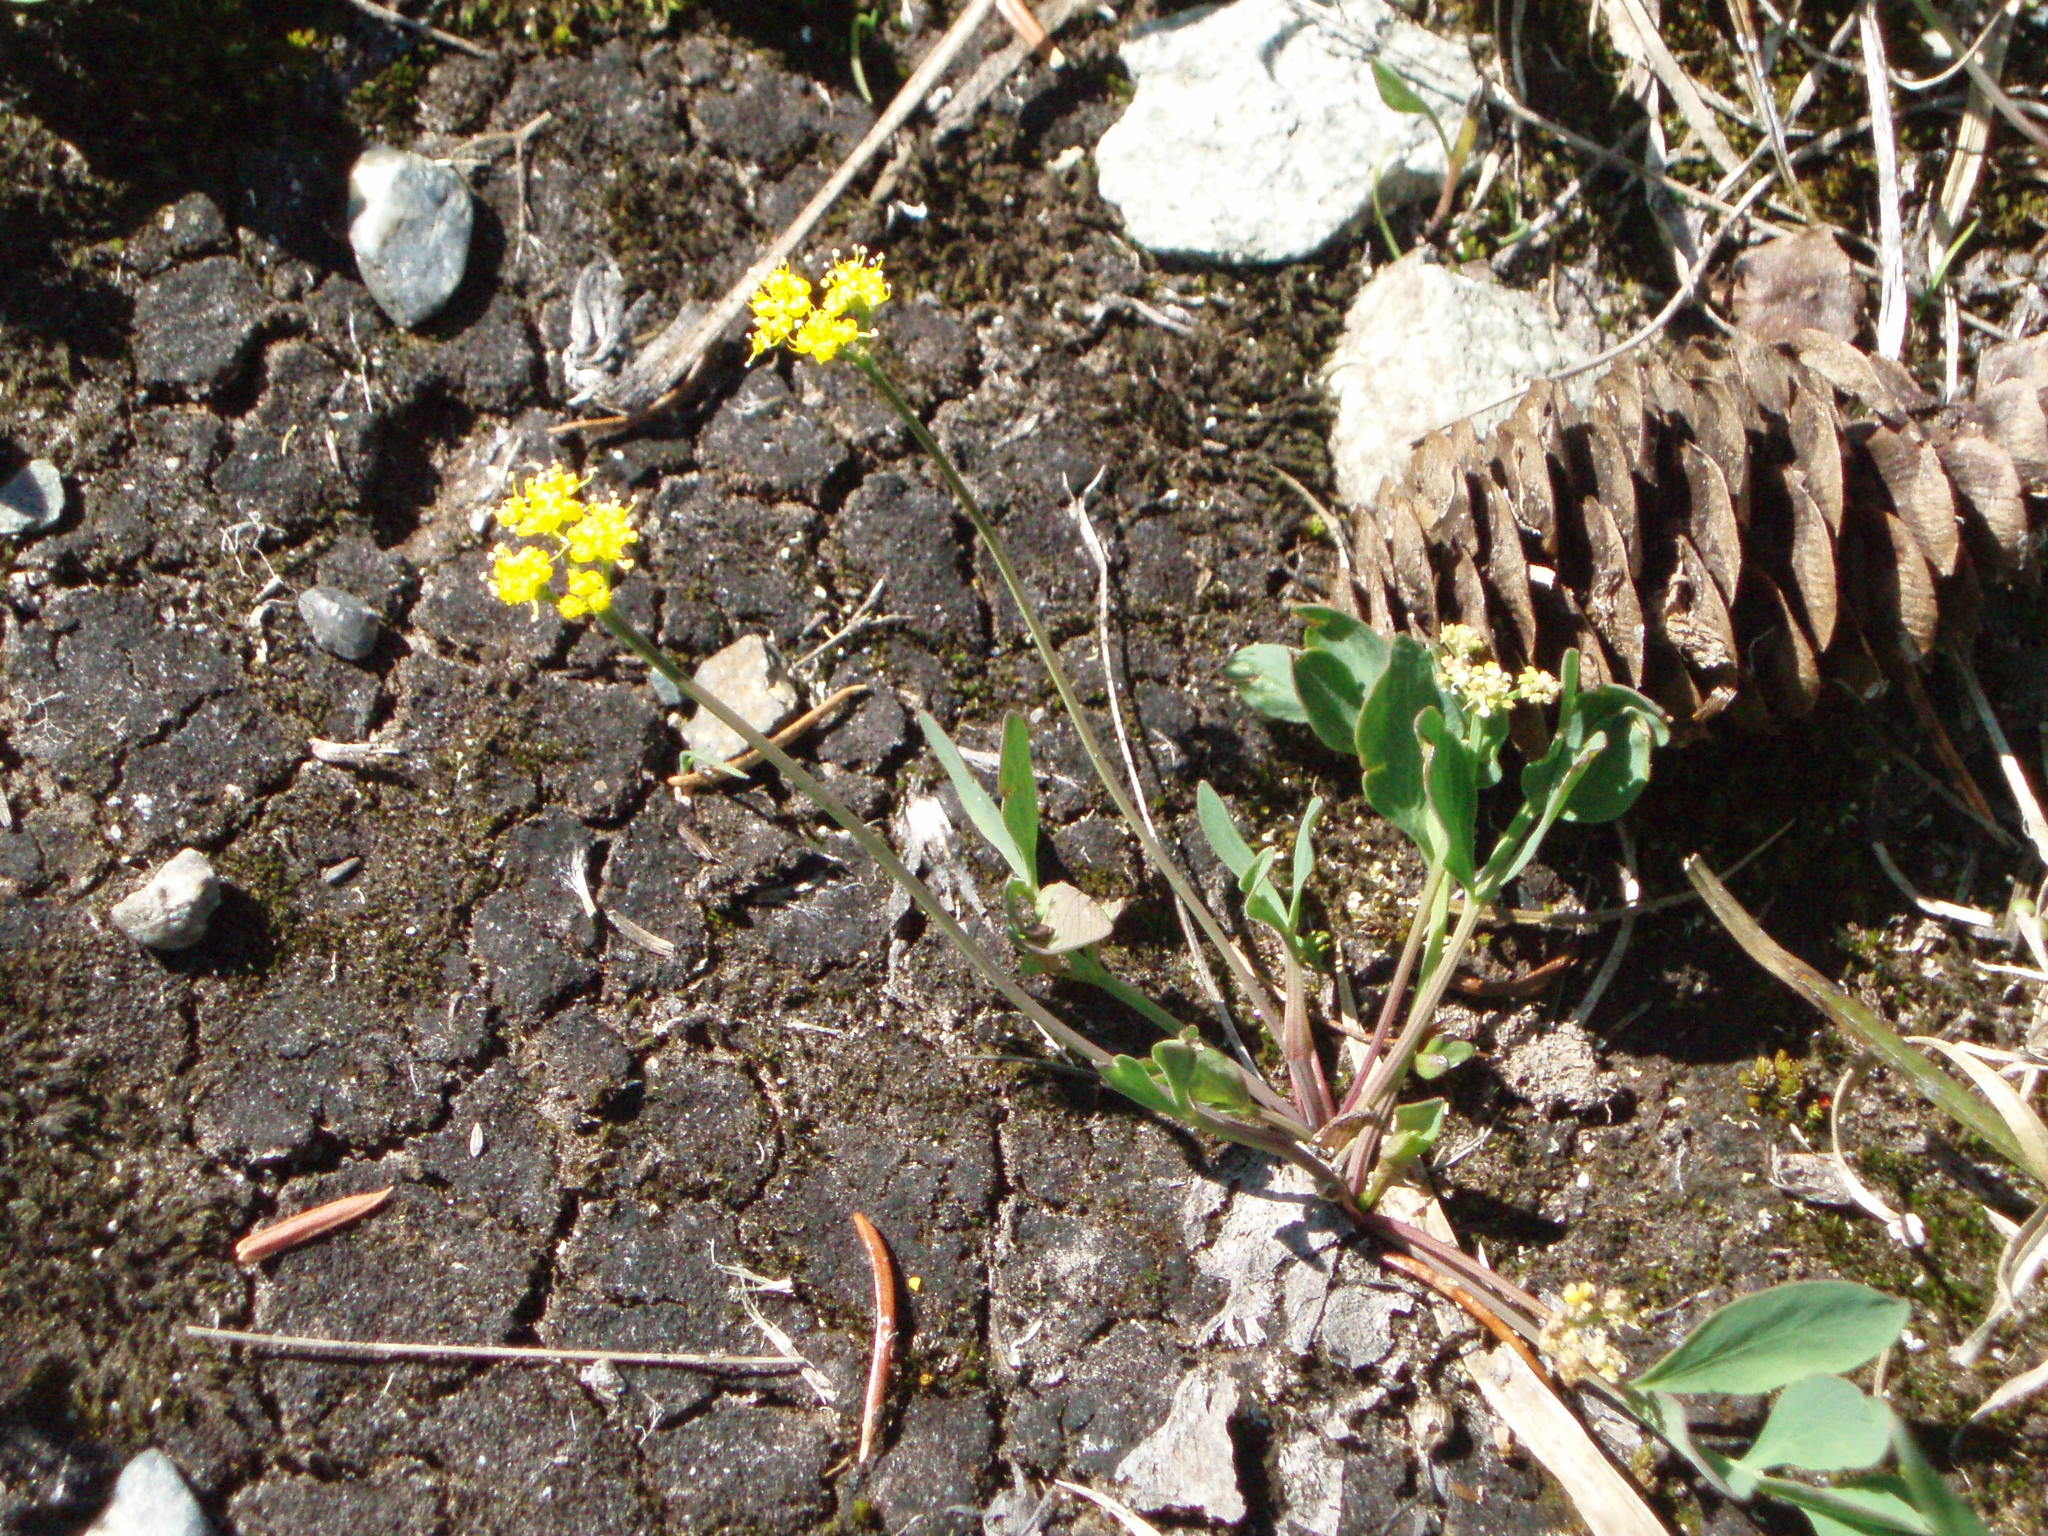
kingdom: Plantae
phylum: Tracheophyta
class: Magnoliopsida
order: Apiales
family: Apiaceae
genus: Tauschia
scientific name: Tauschia stricklandii
